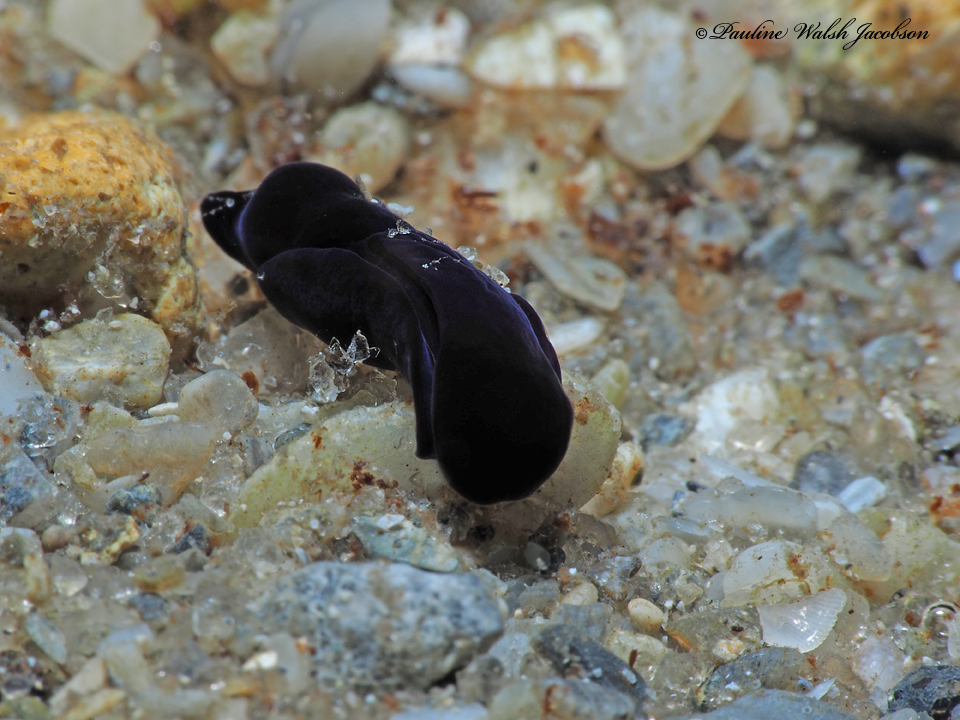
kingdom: Animalia
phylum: Mollusca
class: Gastropoda
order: Cephalaspidea
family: Aglajidae
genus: Nakamigawaia
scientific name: Nakamigawaia felis
